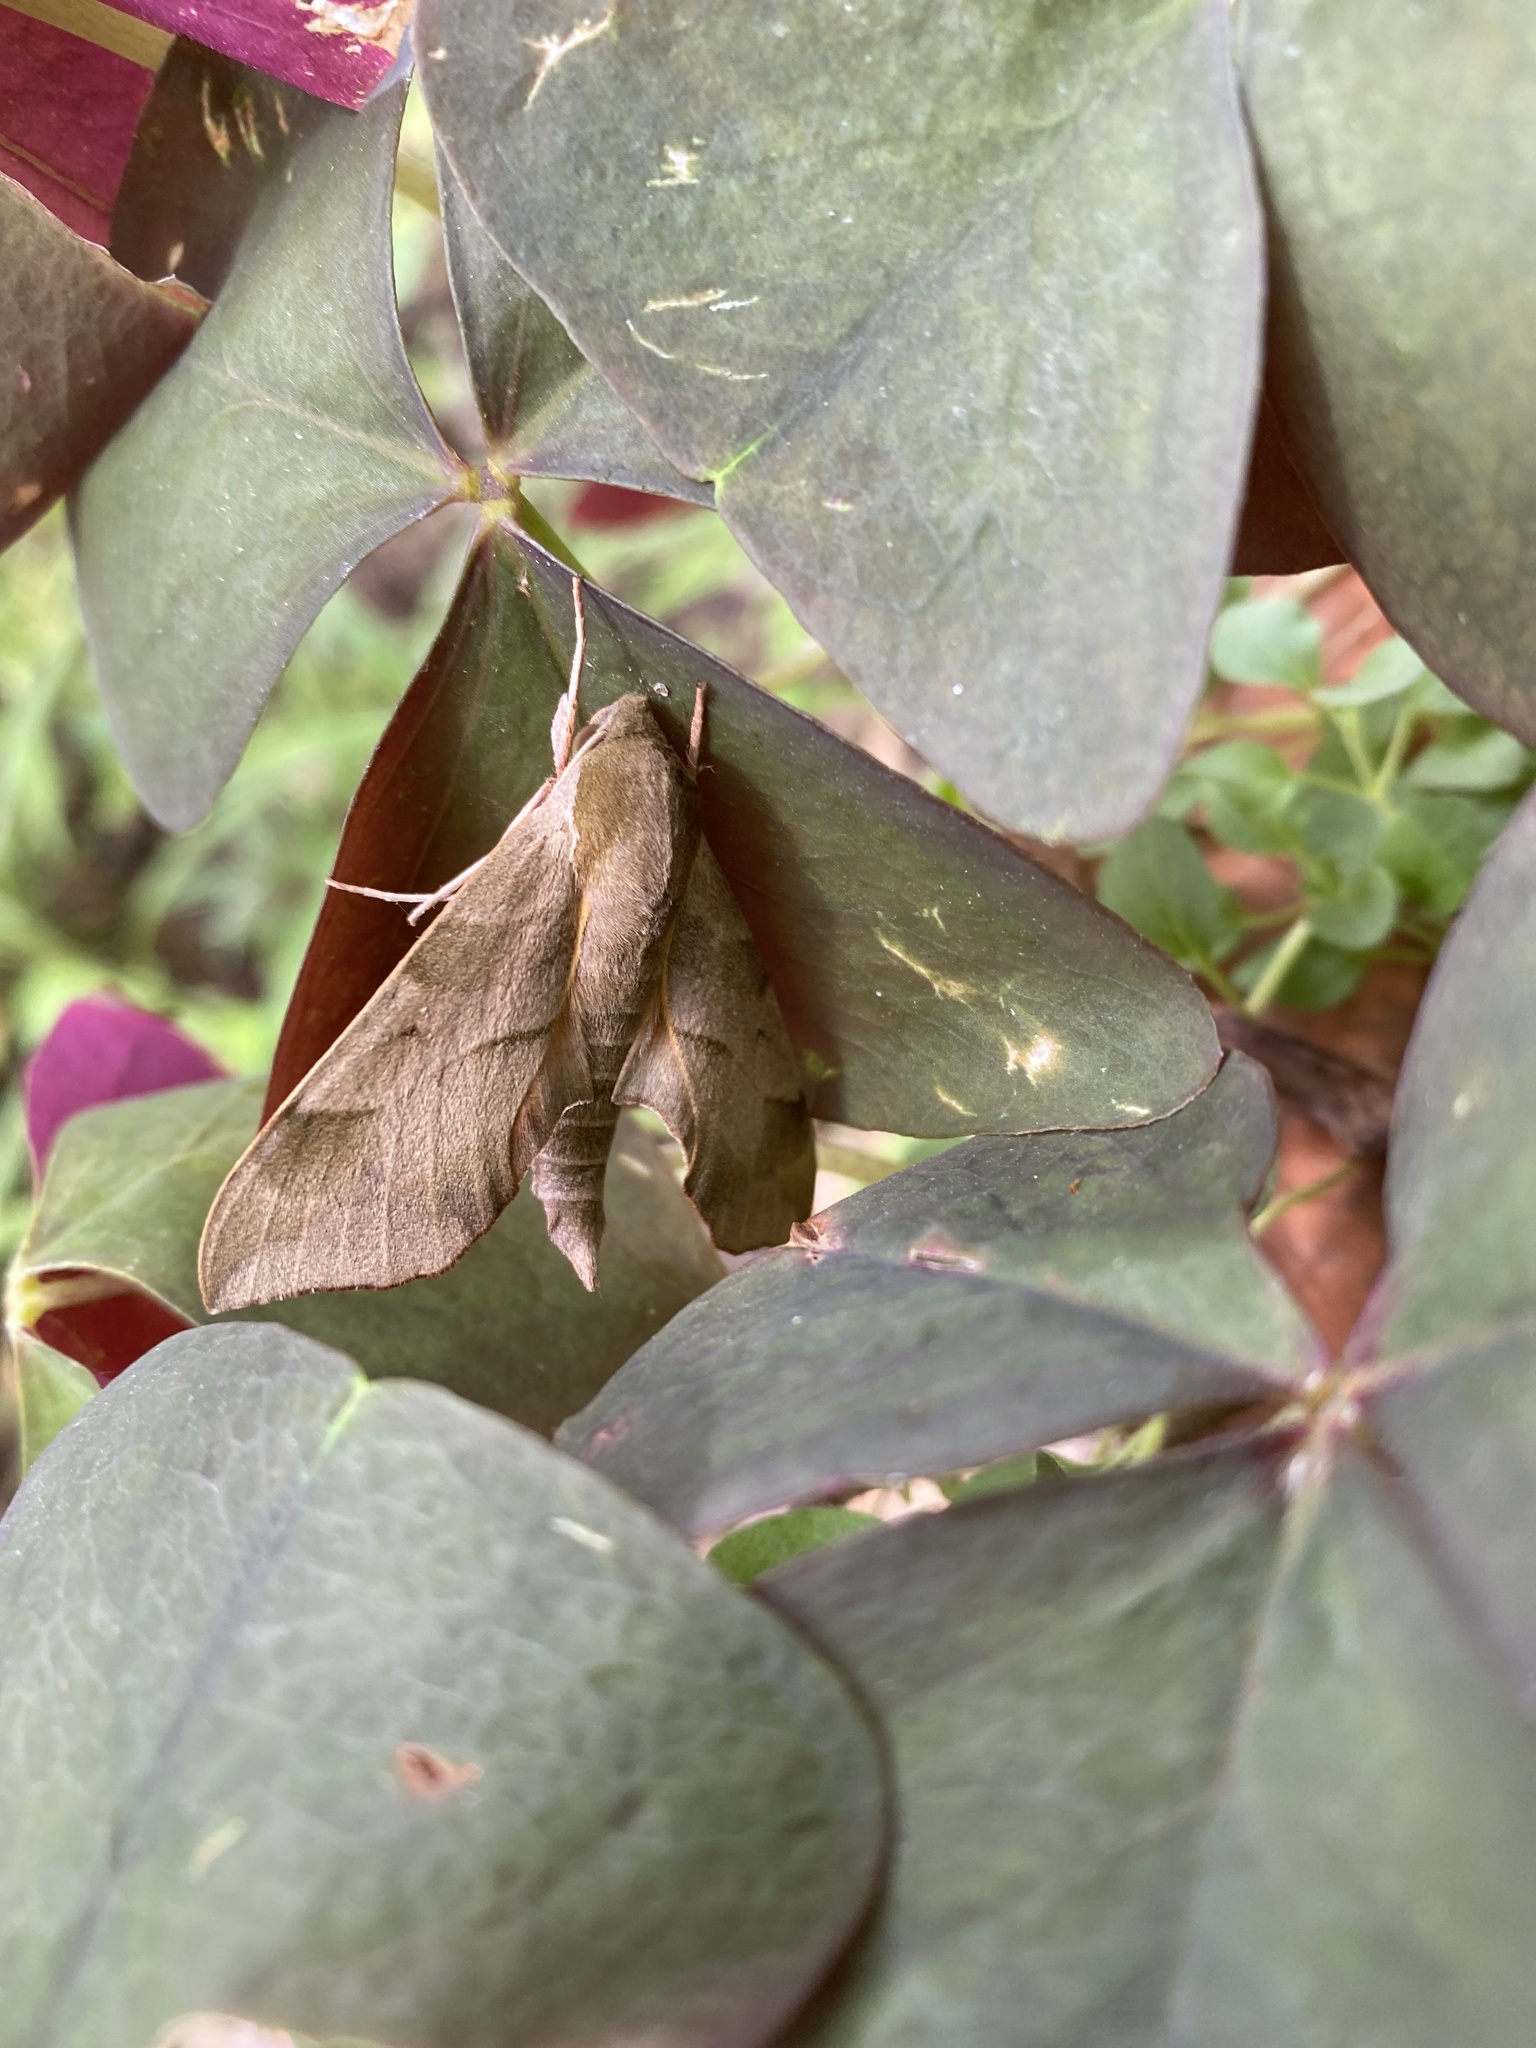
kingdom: Animalia
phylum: Arthropoda
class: Insecta
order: Lepidoptera
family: Sphingidae
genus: Darapsa
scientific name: Darapsa myron
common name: Hog sphinx
